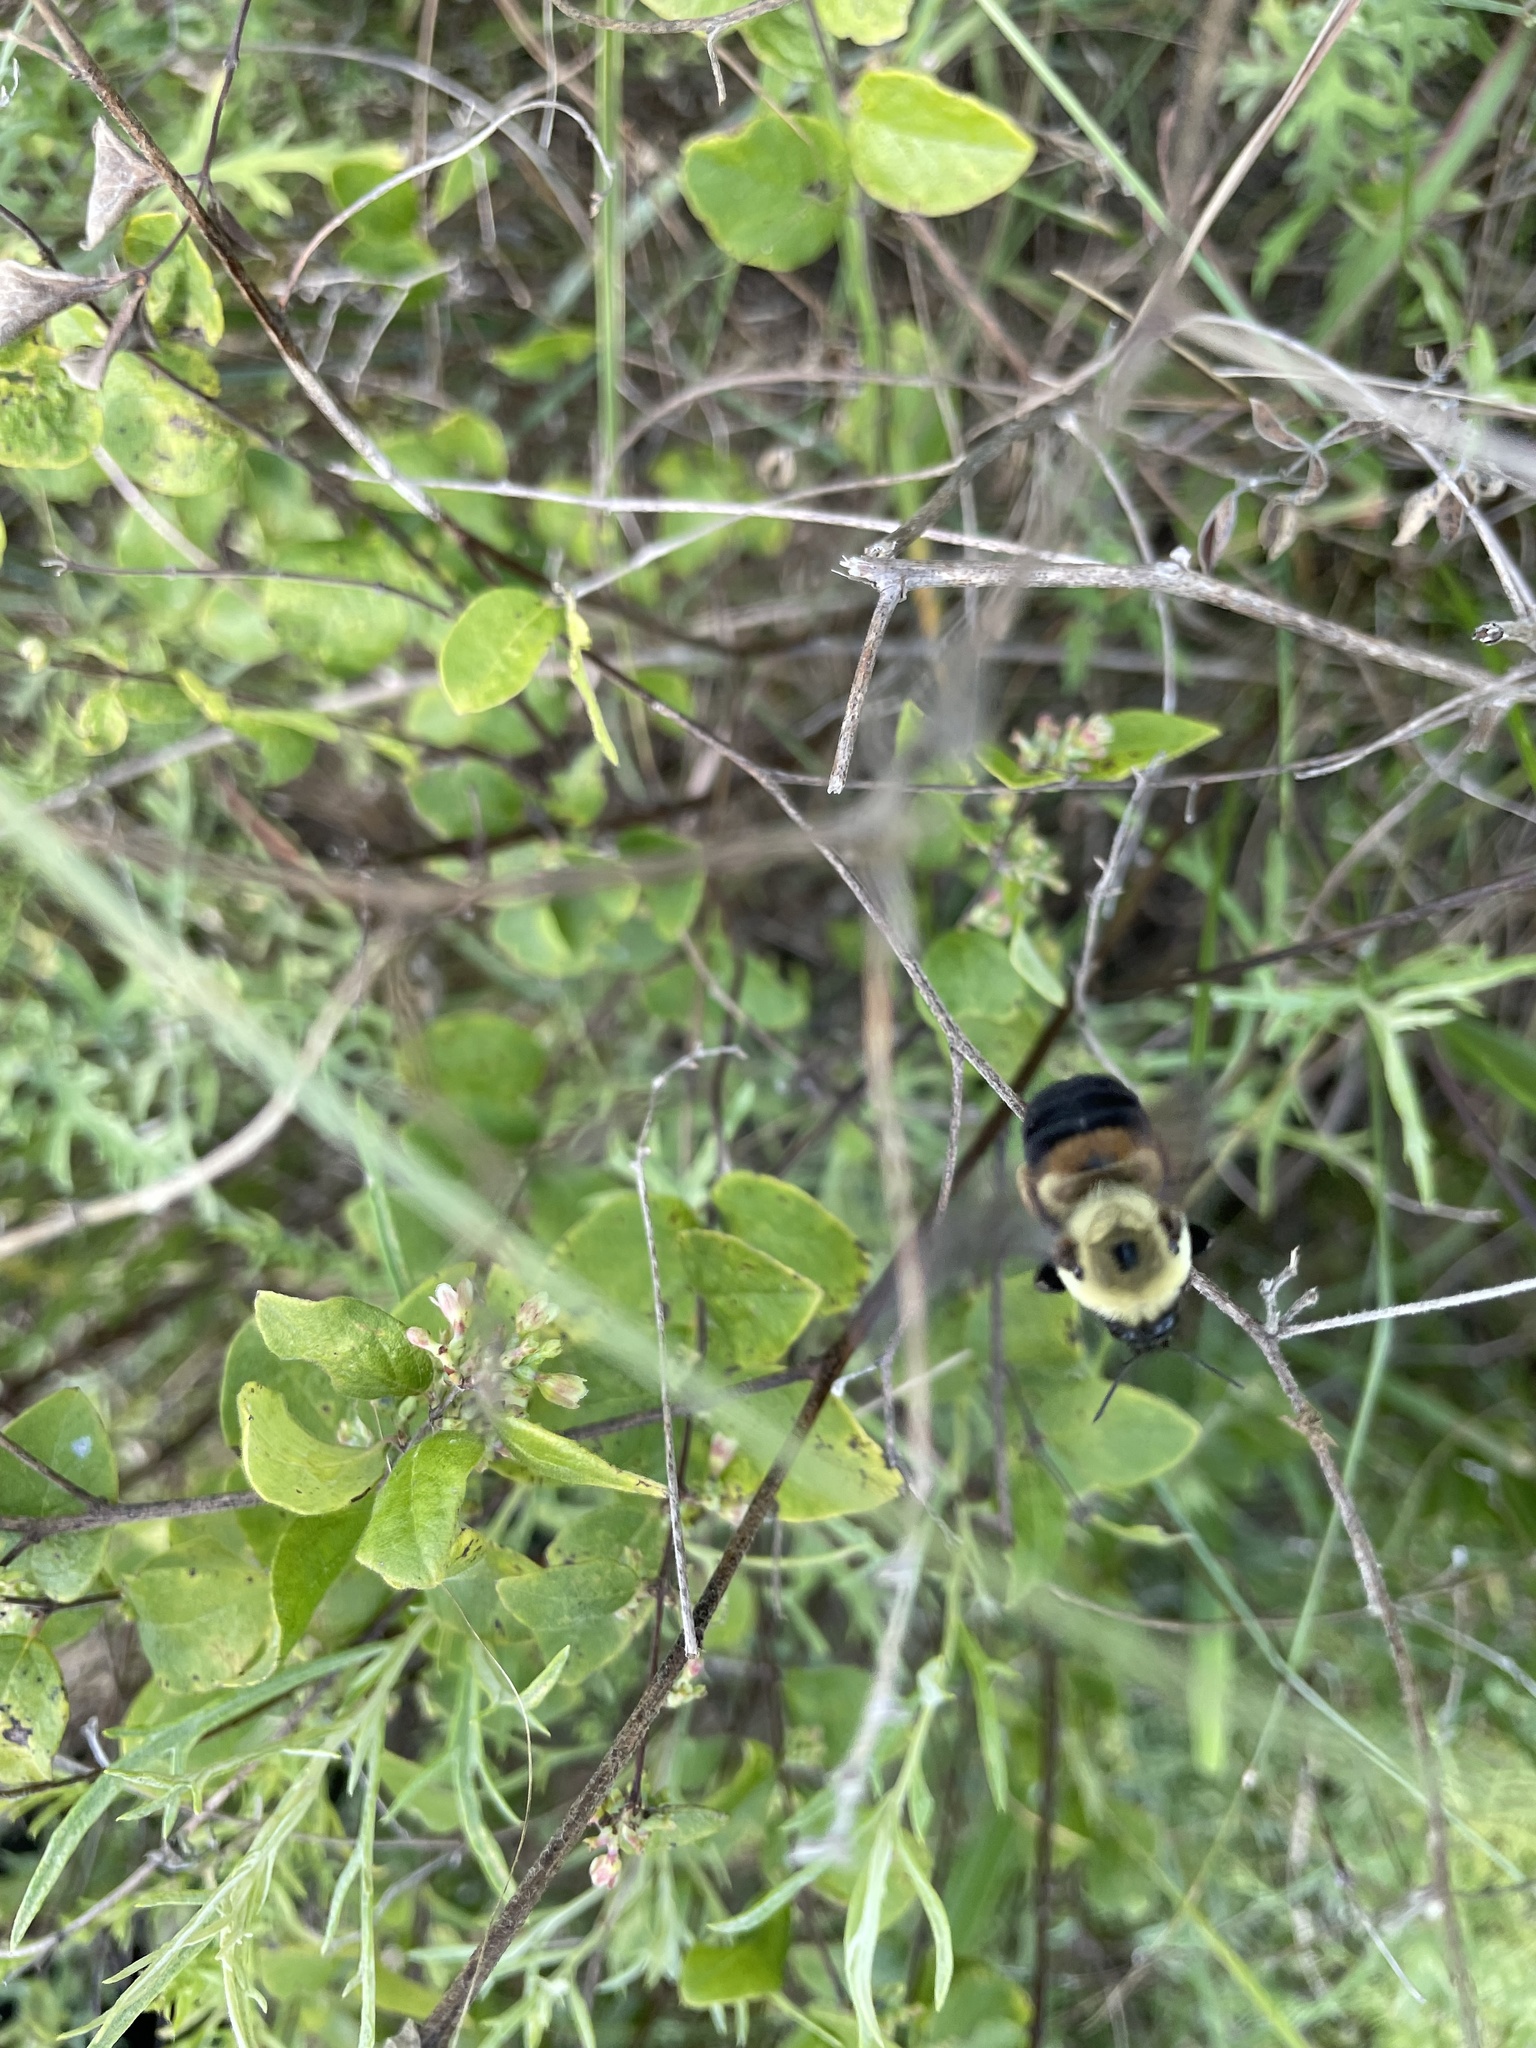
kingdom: Animalia
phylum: Arthropoda
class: Insecta
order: Hymenoptera
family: Apidae
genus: Bombus
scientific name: Bombus griseocollis
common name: Brown-belted bumble bee
